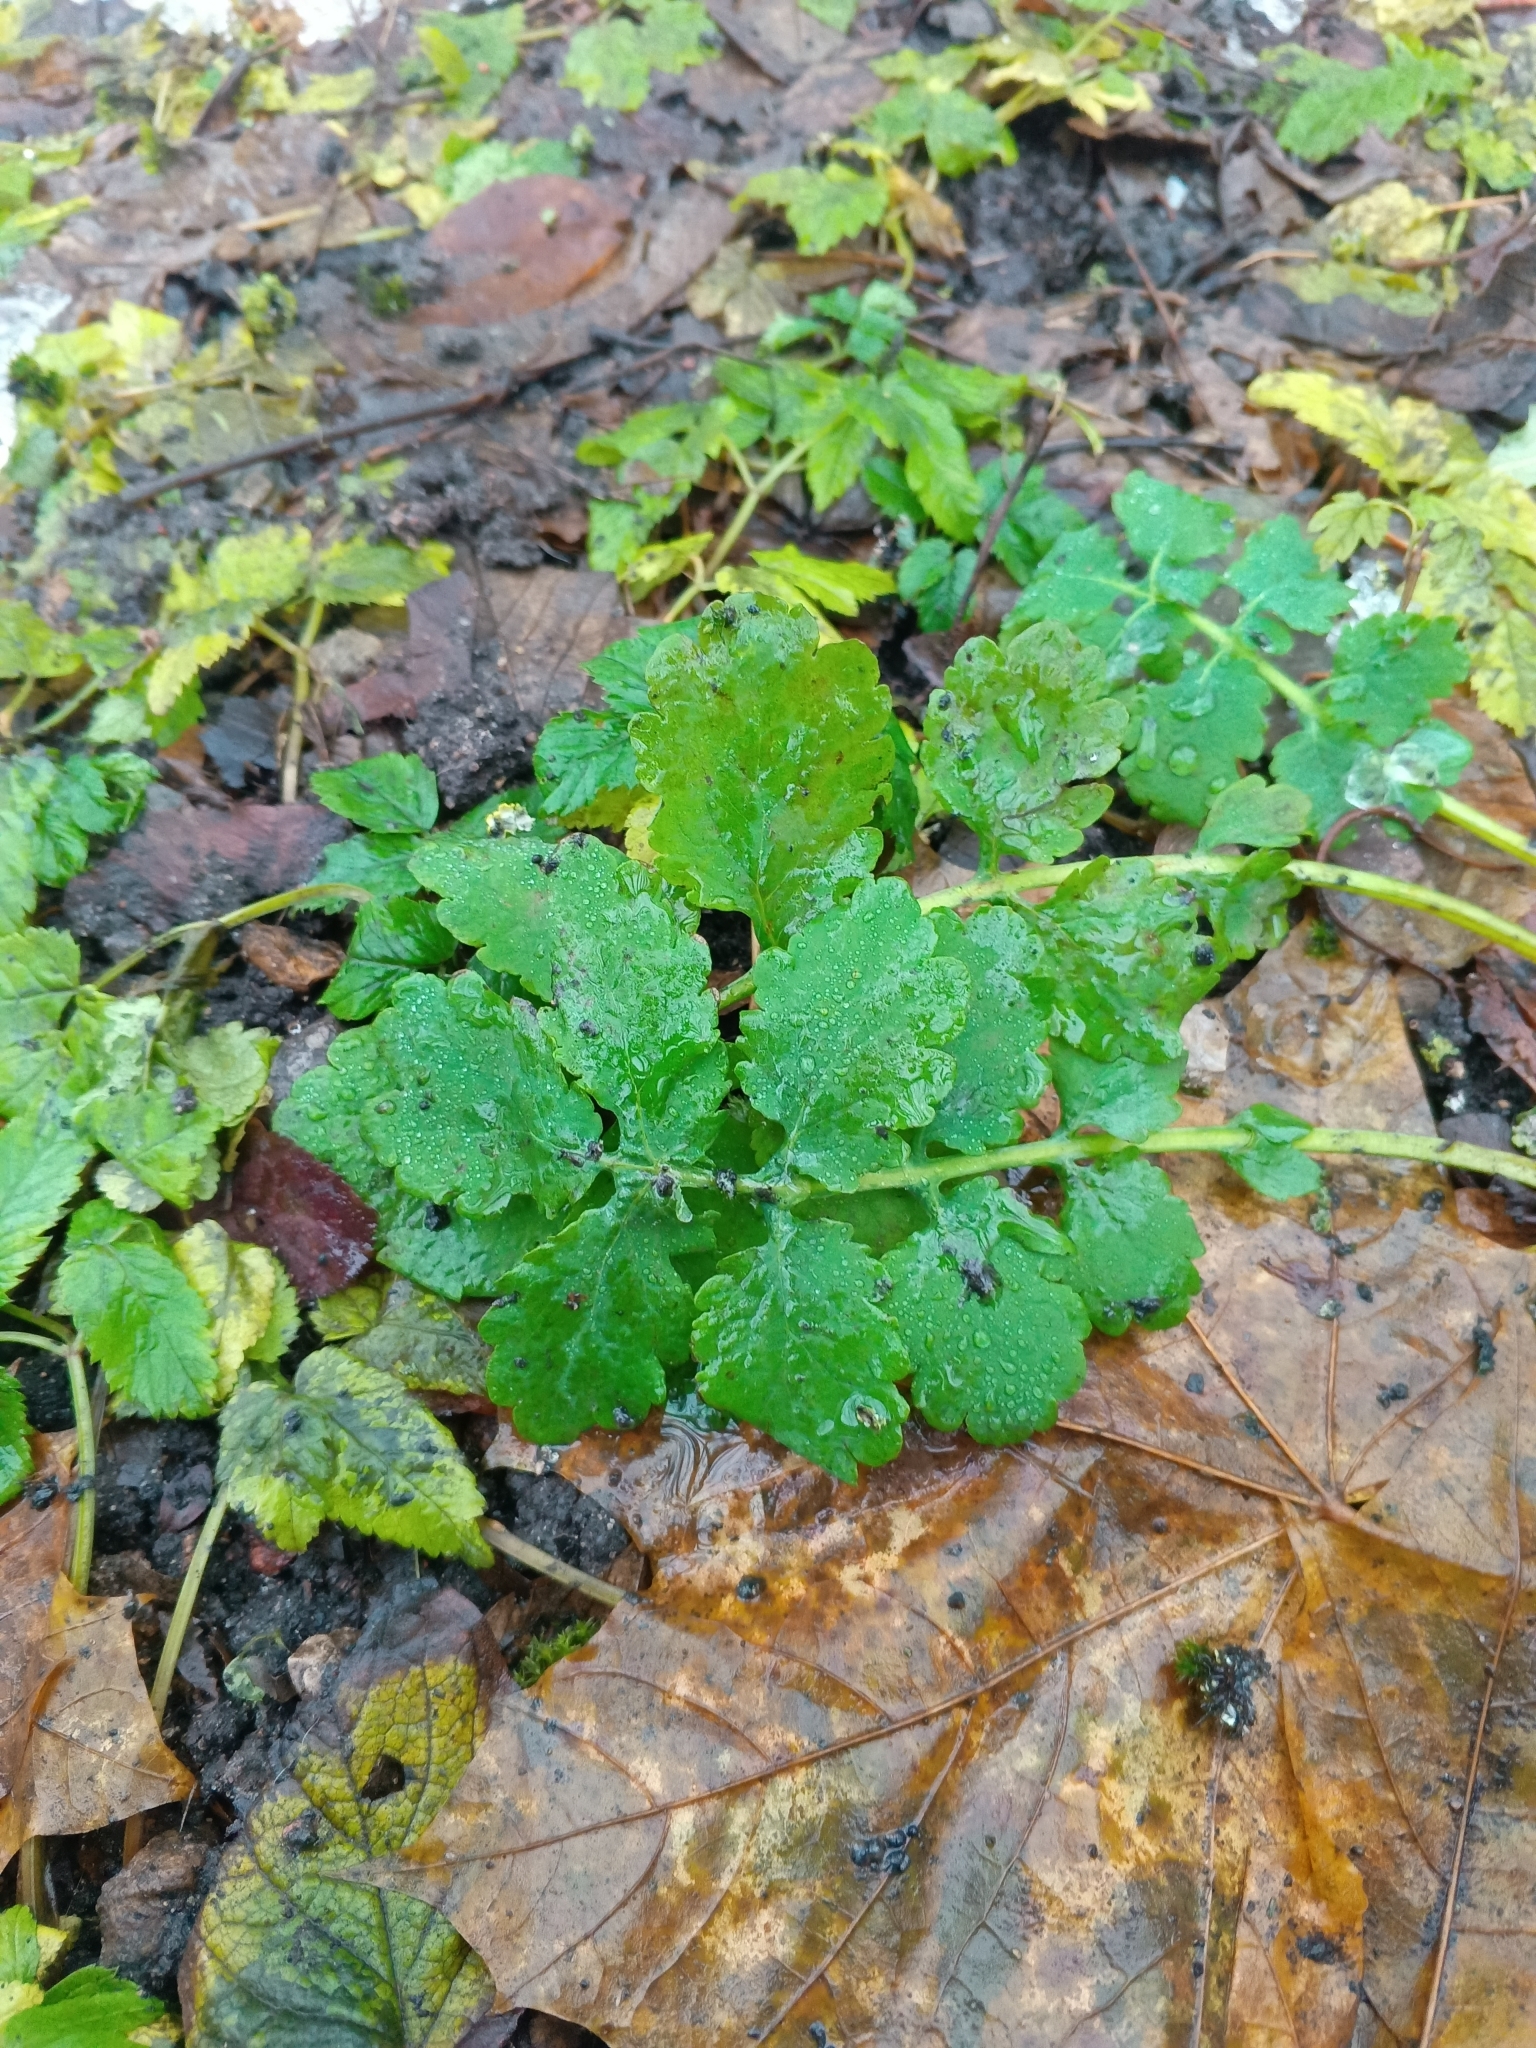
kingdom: Plantae
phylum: Tracheophyta
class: Magnoliopsida
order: Ranunculales
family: Papaveraceae
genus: Chelidonium
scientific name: Chelidonium majus
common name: Greater celandine
